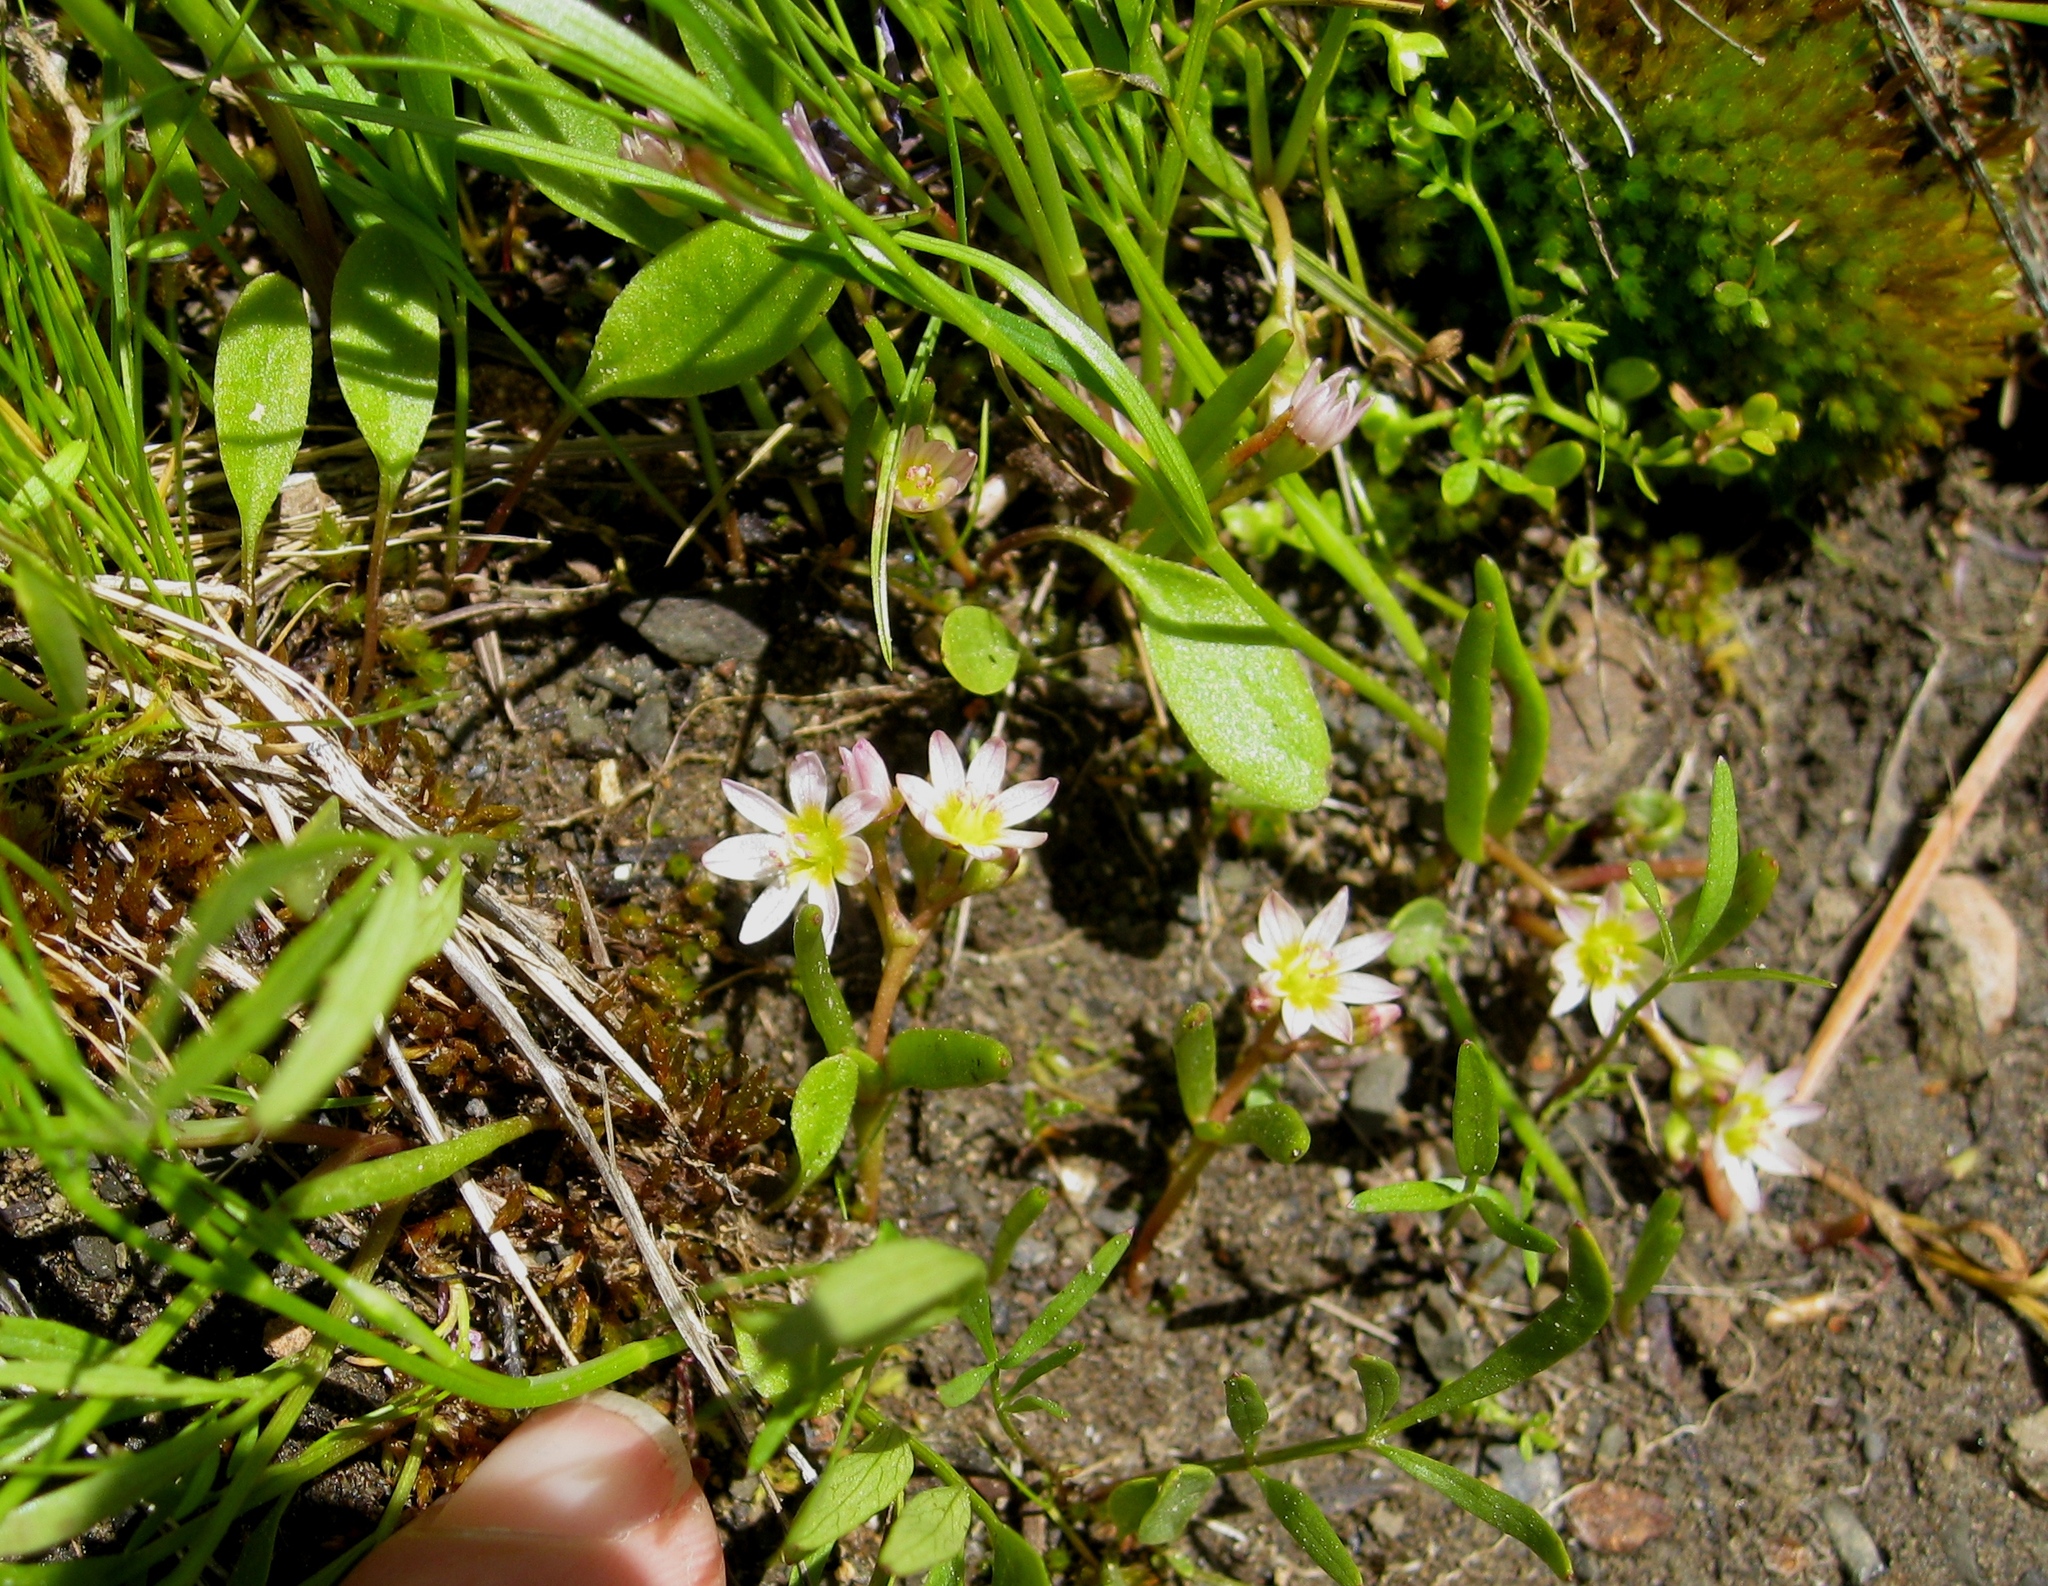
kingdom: Plantae
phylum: Tracheophyta
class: Magnoliopsida
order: Caryophyllales
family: Montiaceae
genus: Lewisia
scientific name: Lewisia triphylla
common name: Three-leaved bitterroot
